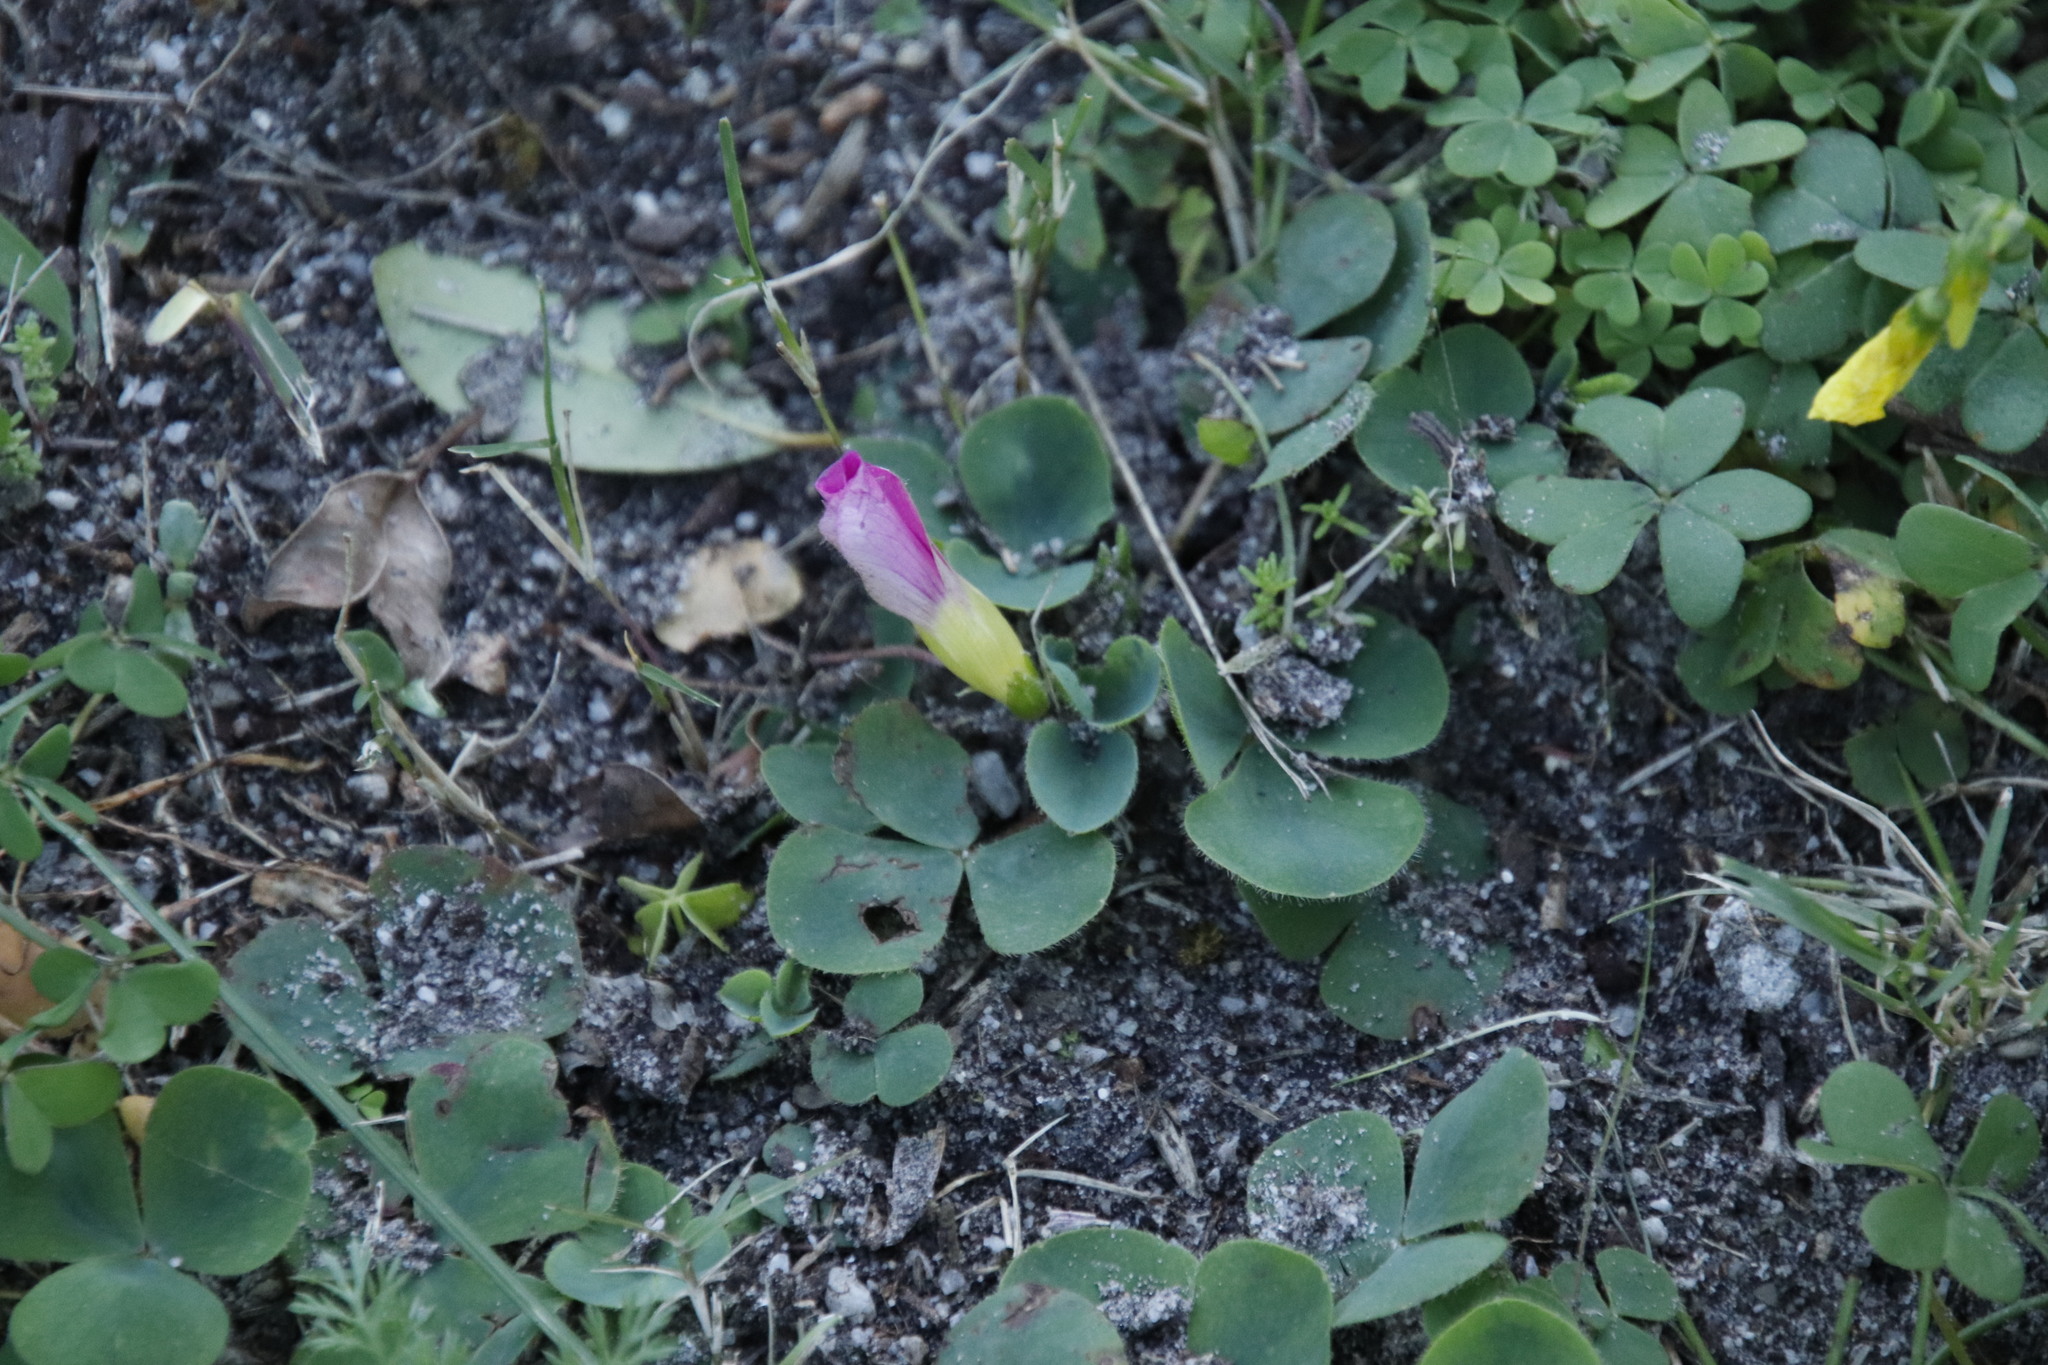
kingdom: Plantae
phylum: Tracheophyta
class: Magnoliopsida
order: Oxalidales
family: Oxalidaceae
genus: Oxalis
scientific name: Oxalis purpurea
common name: Purple woodsorrel
